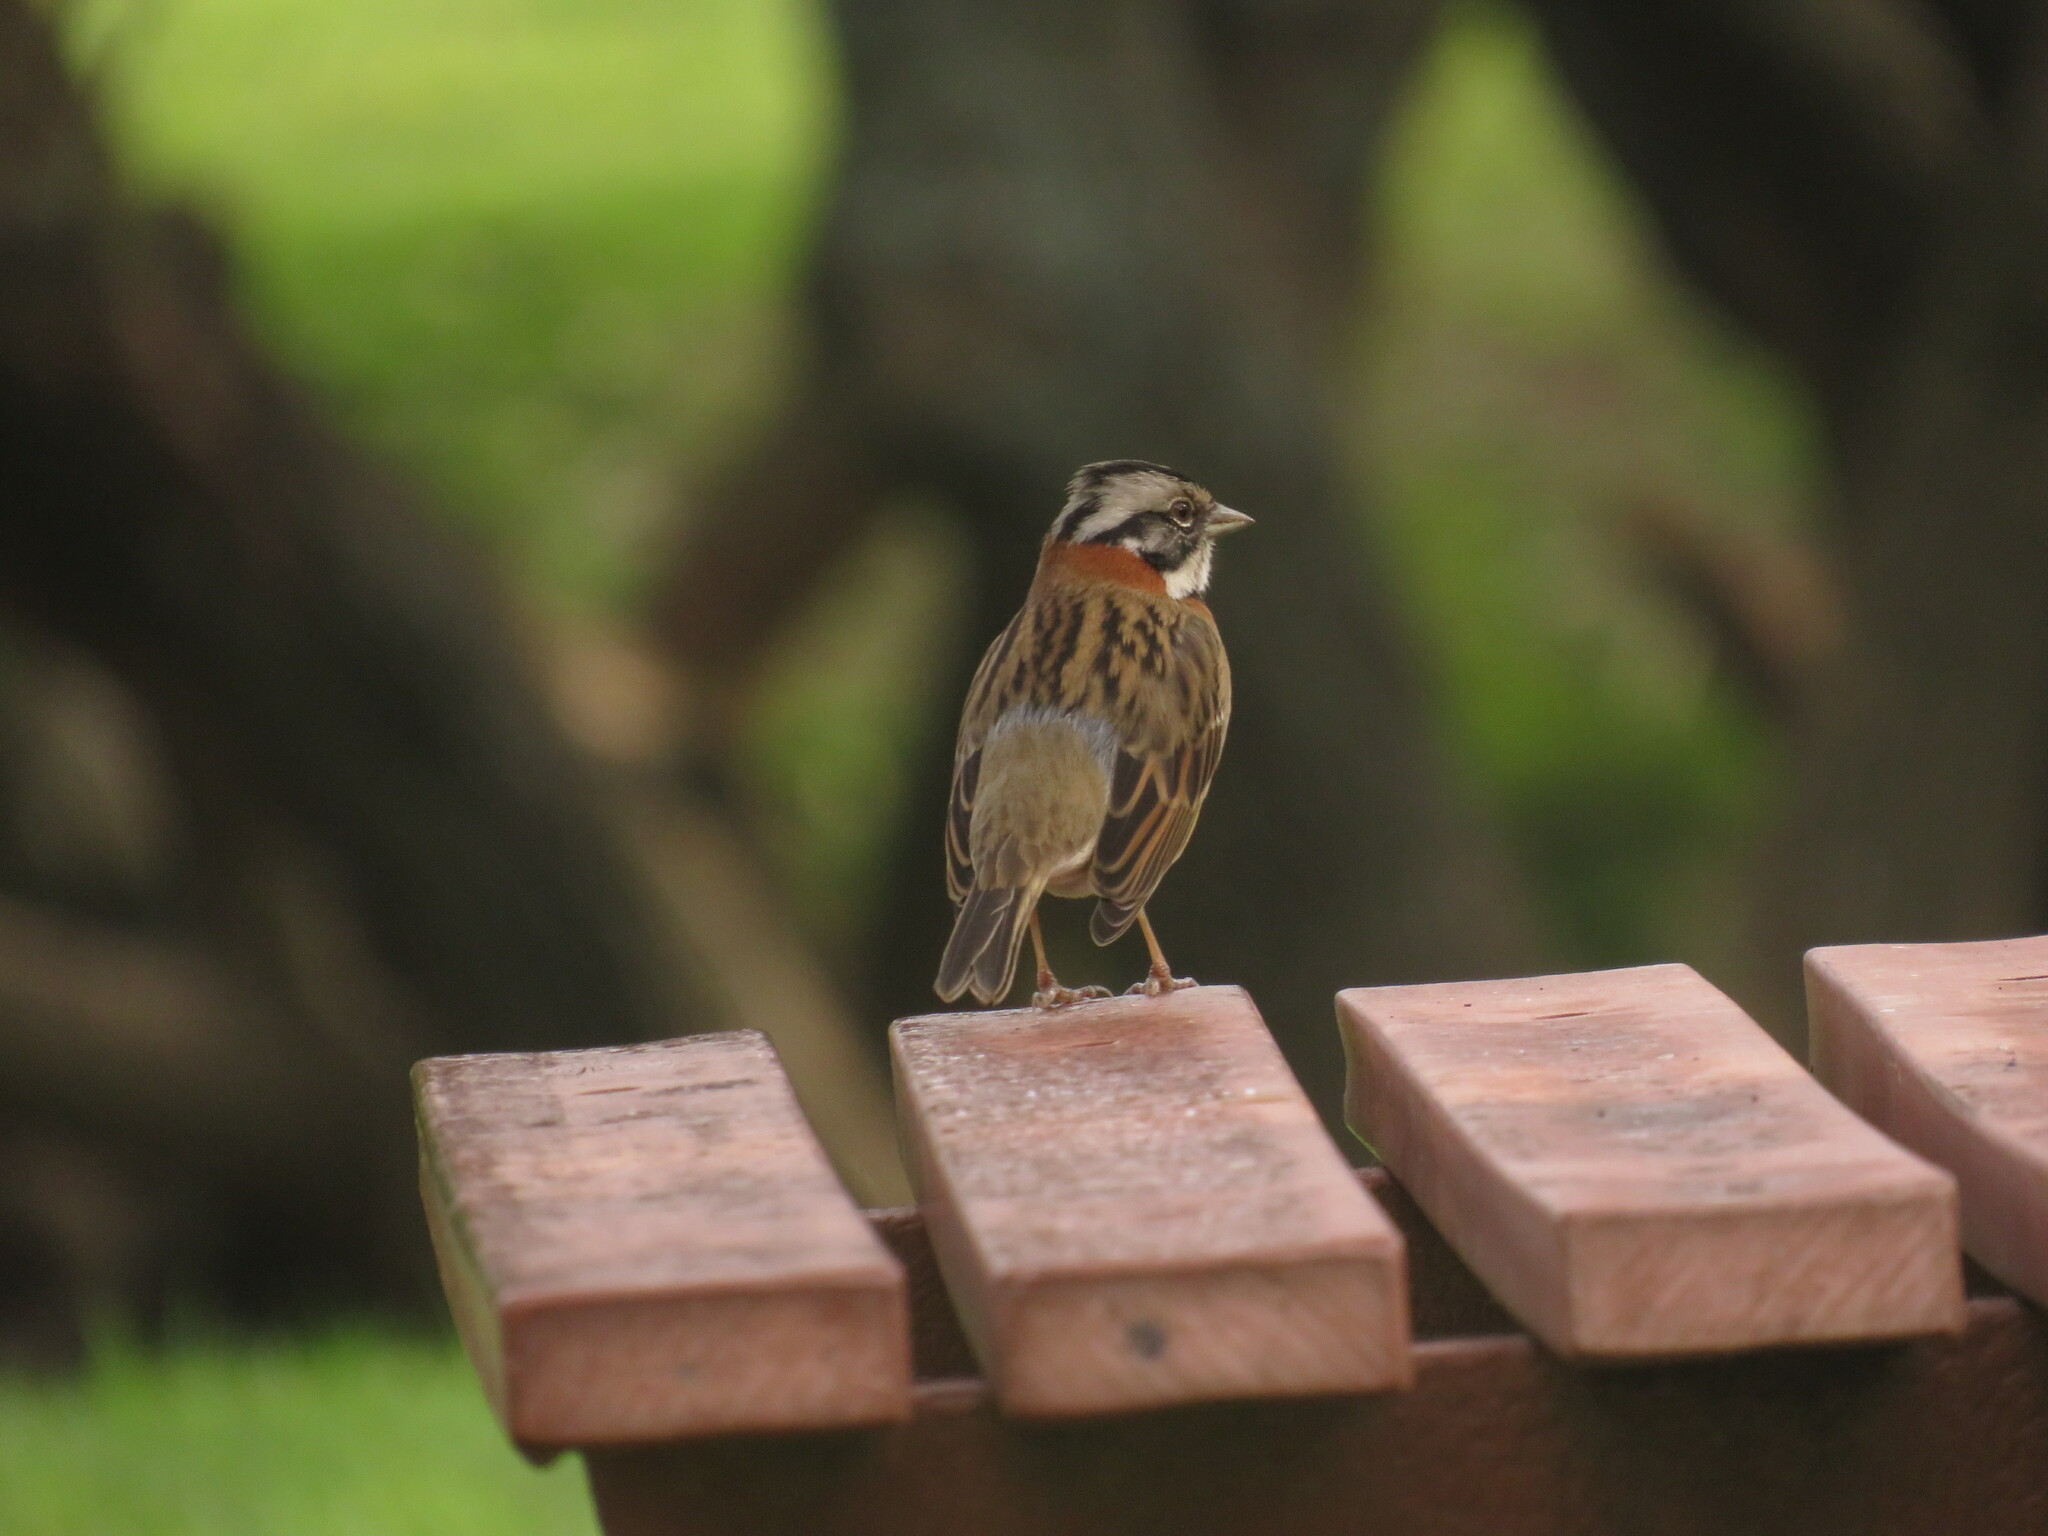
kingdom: Animalia
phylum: Chordata
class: Aves
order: Passeriformes
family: Passerellidae
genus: Zonotrichia
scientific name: Zonotrichia capensis
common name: Rufous-collared sparrow
